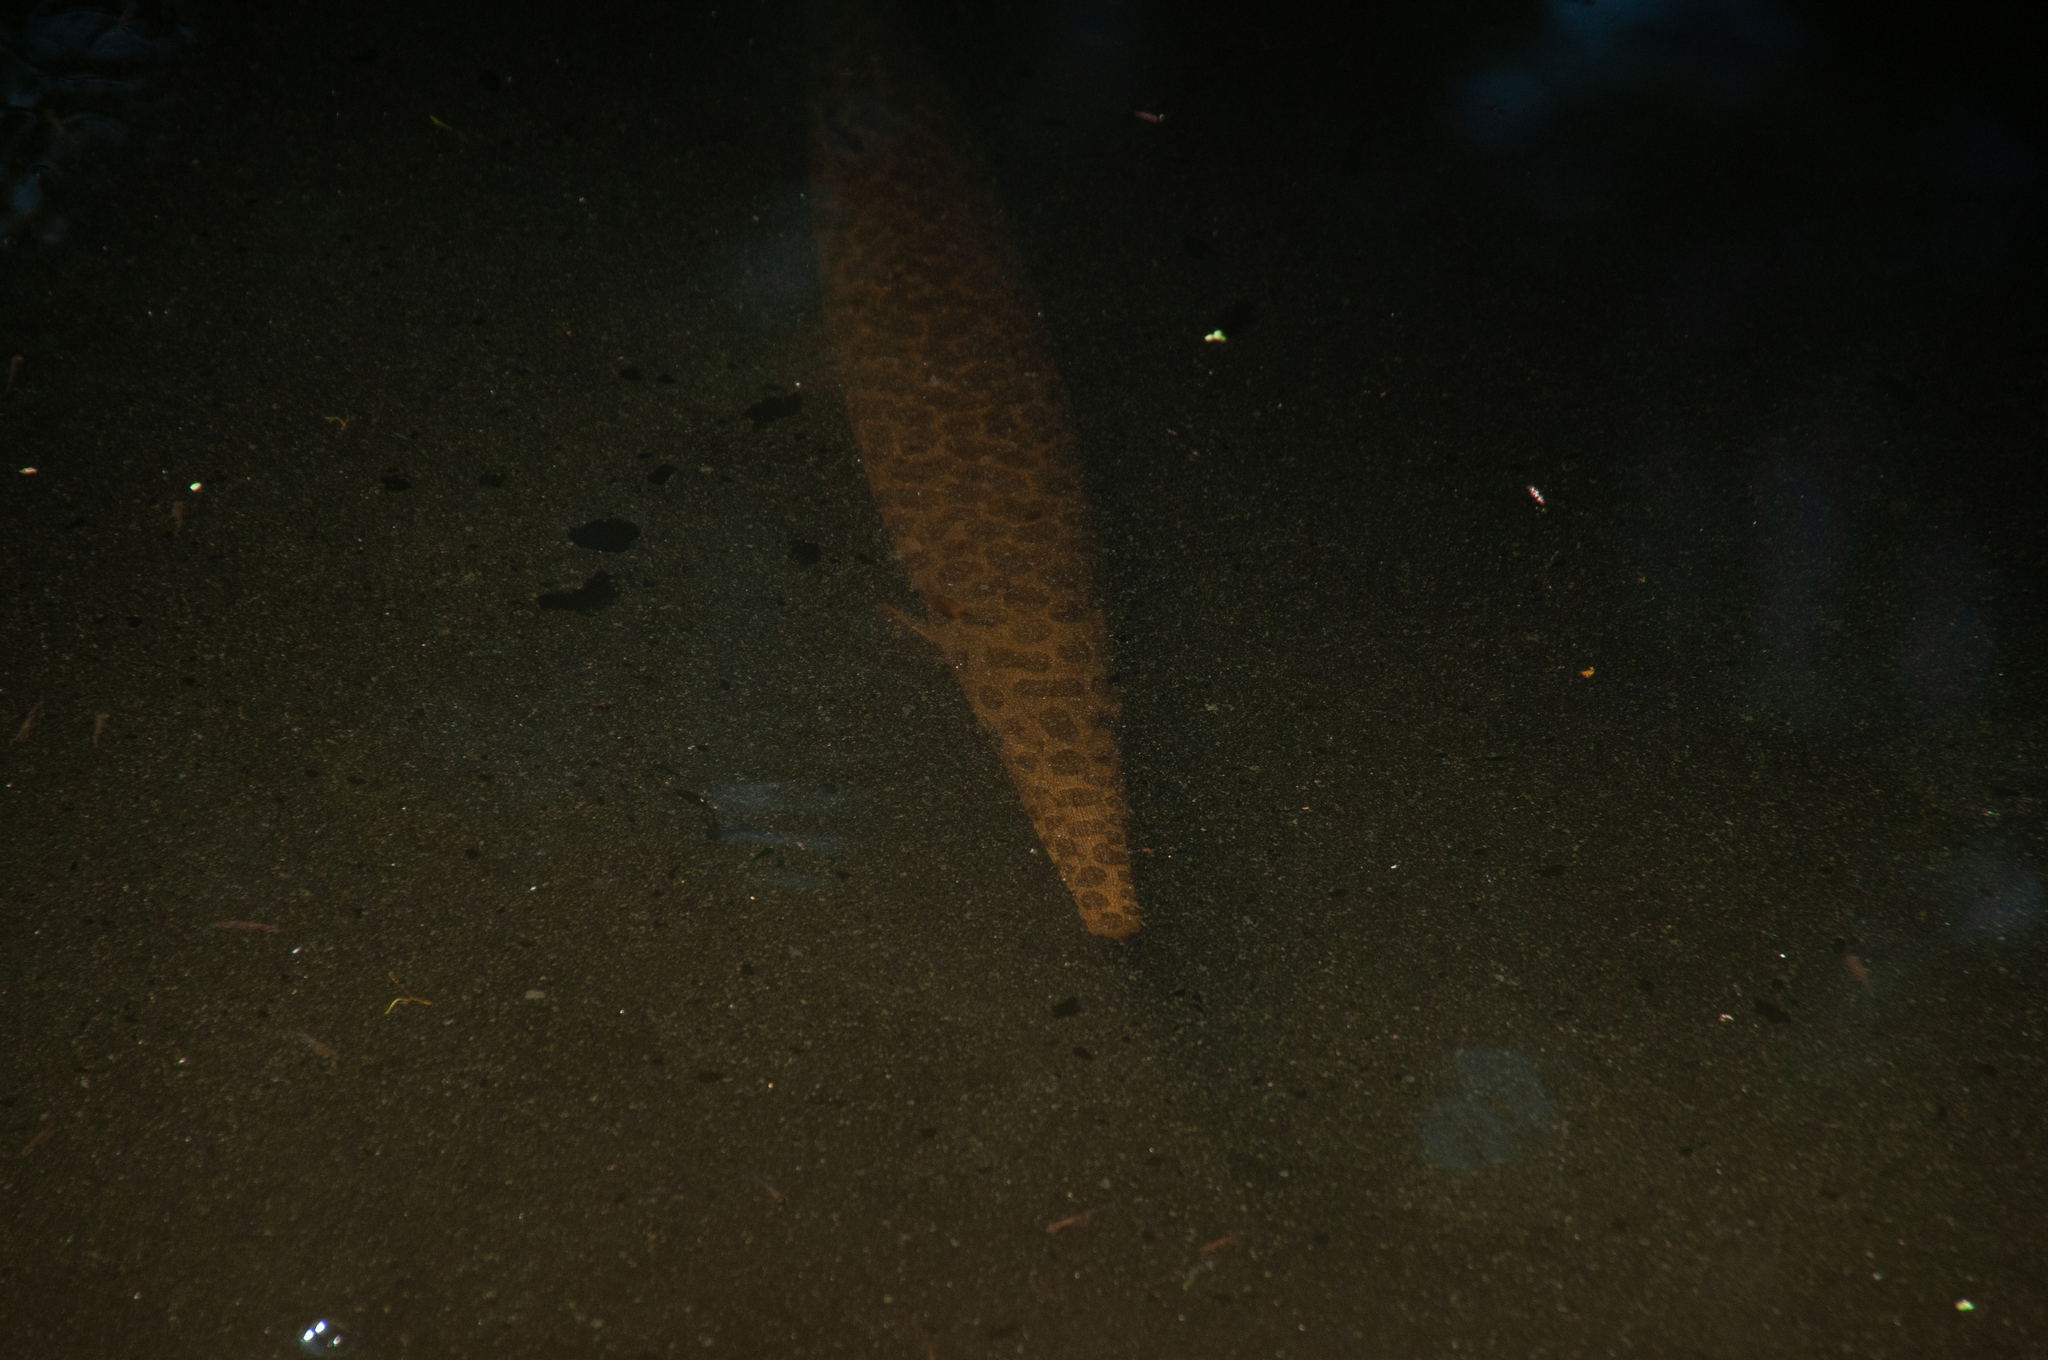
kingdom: Animalia
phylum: Chordata
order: Lepisosteiformes
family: Lepisosteidae
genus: Lepisosteus
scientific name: Lepisosteus oculatus
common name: Spotted gar
